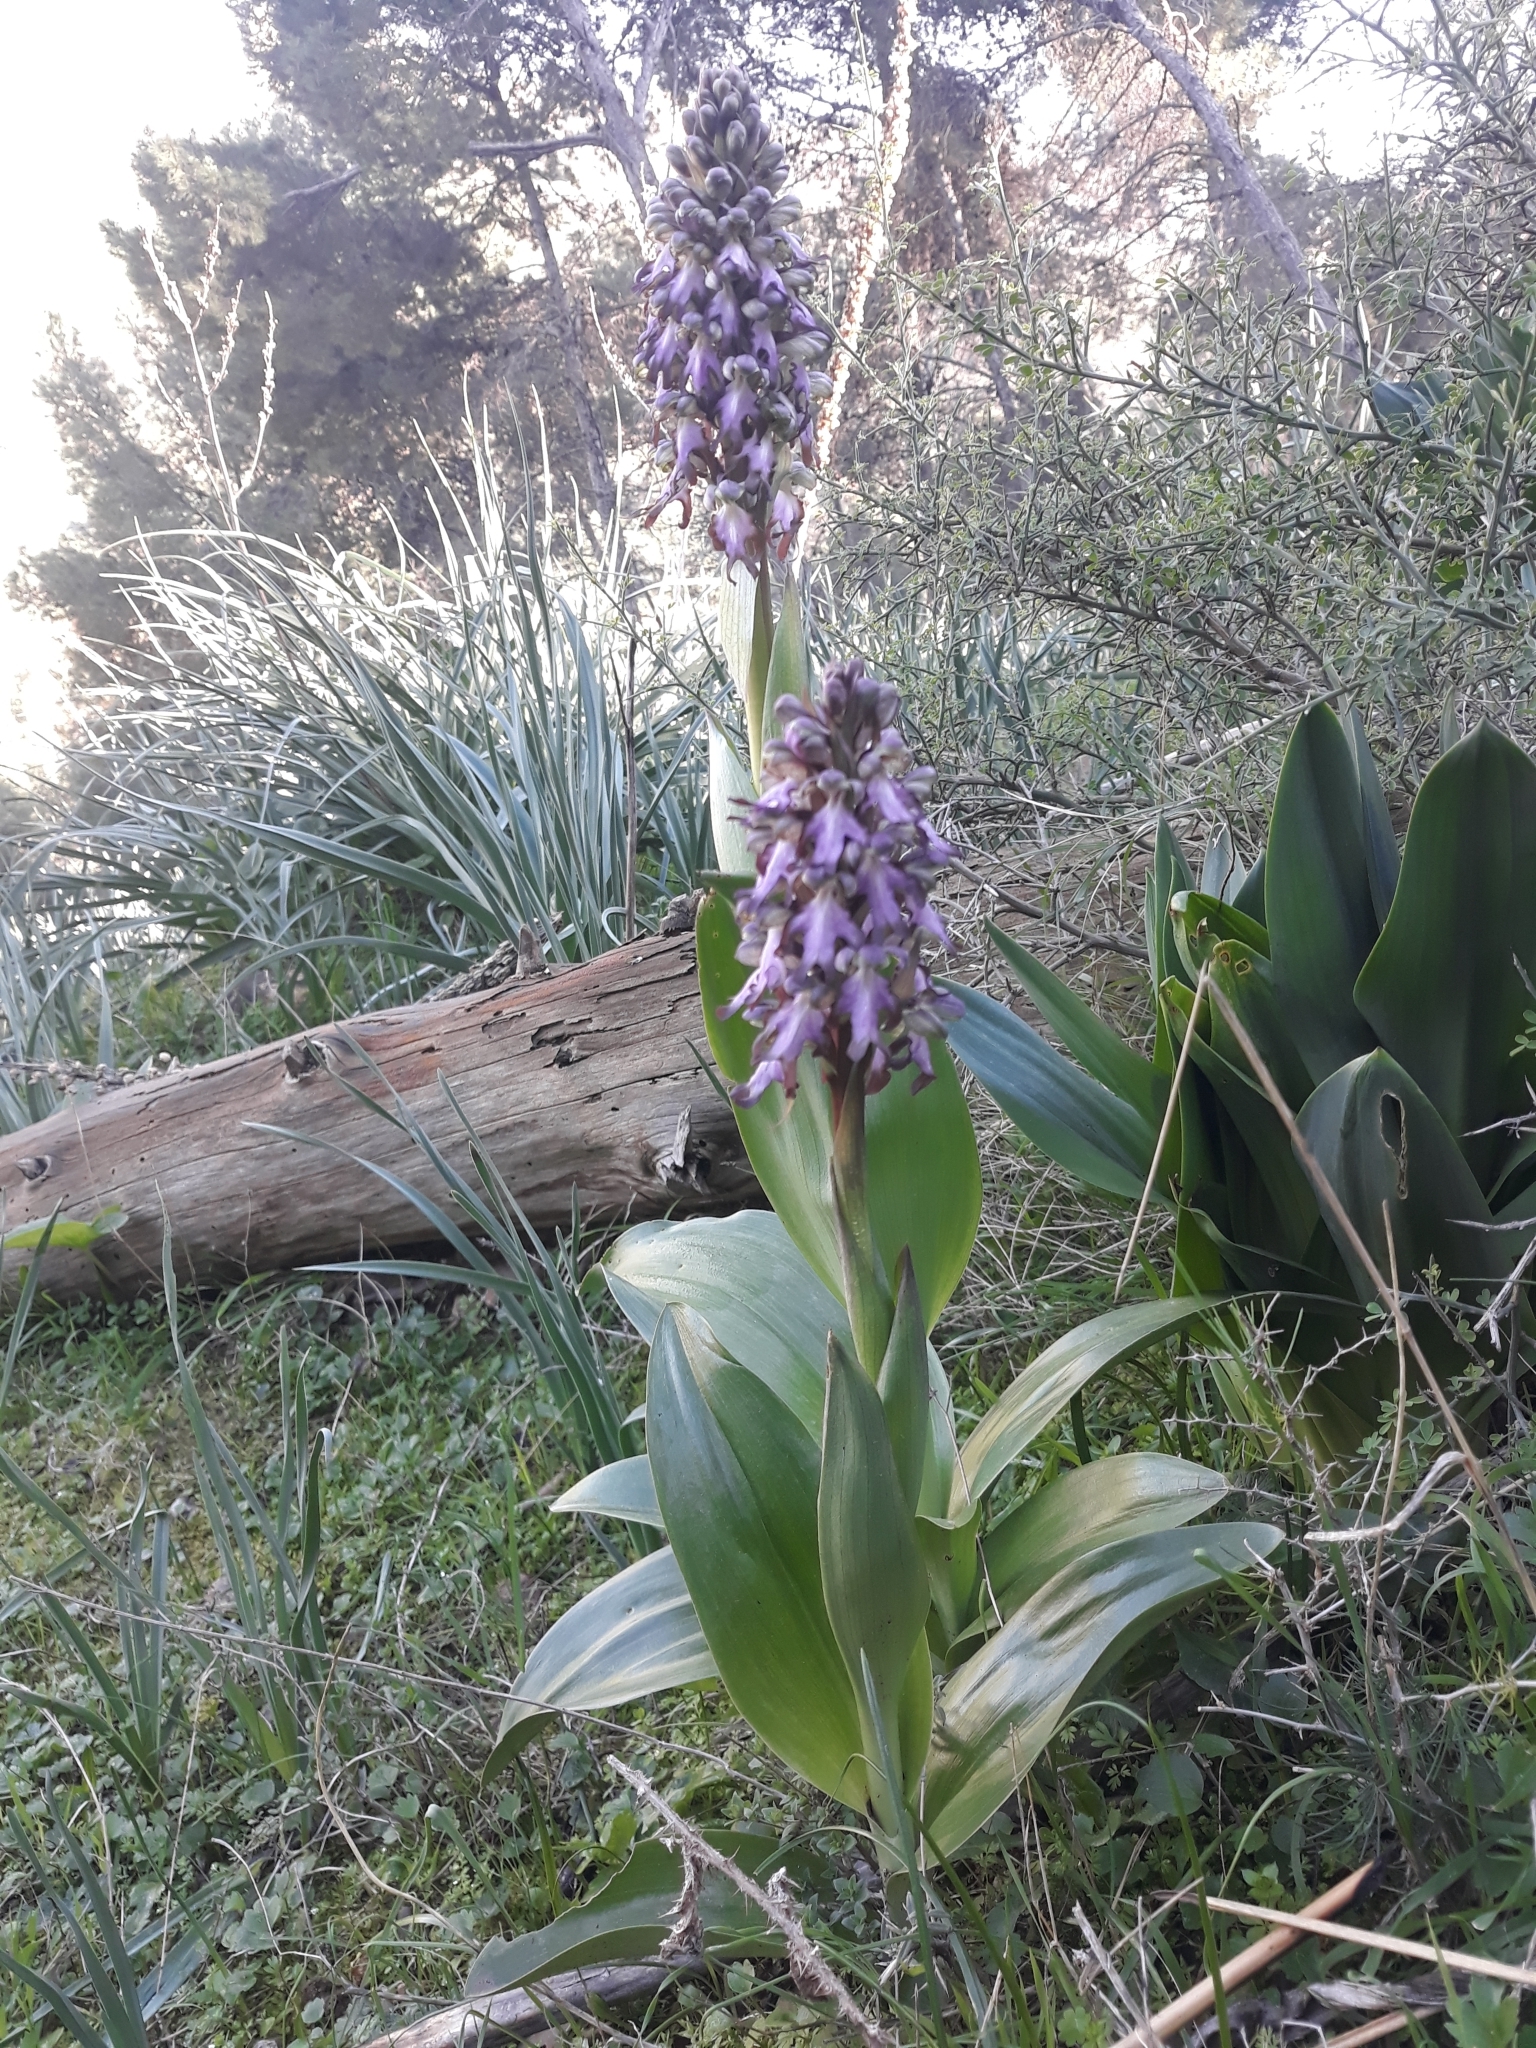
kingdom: Plantae
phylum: Tracheophyta
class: Liliopsida
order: Asparagales
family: Orchidaceae
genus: Himantoglossum
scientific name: Himantoglossum robertianum
